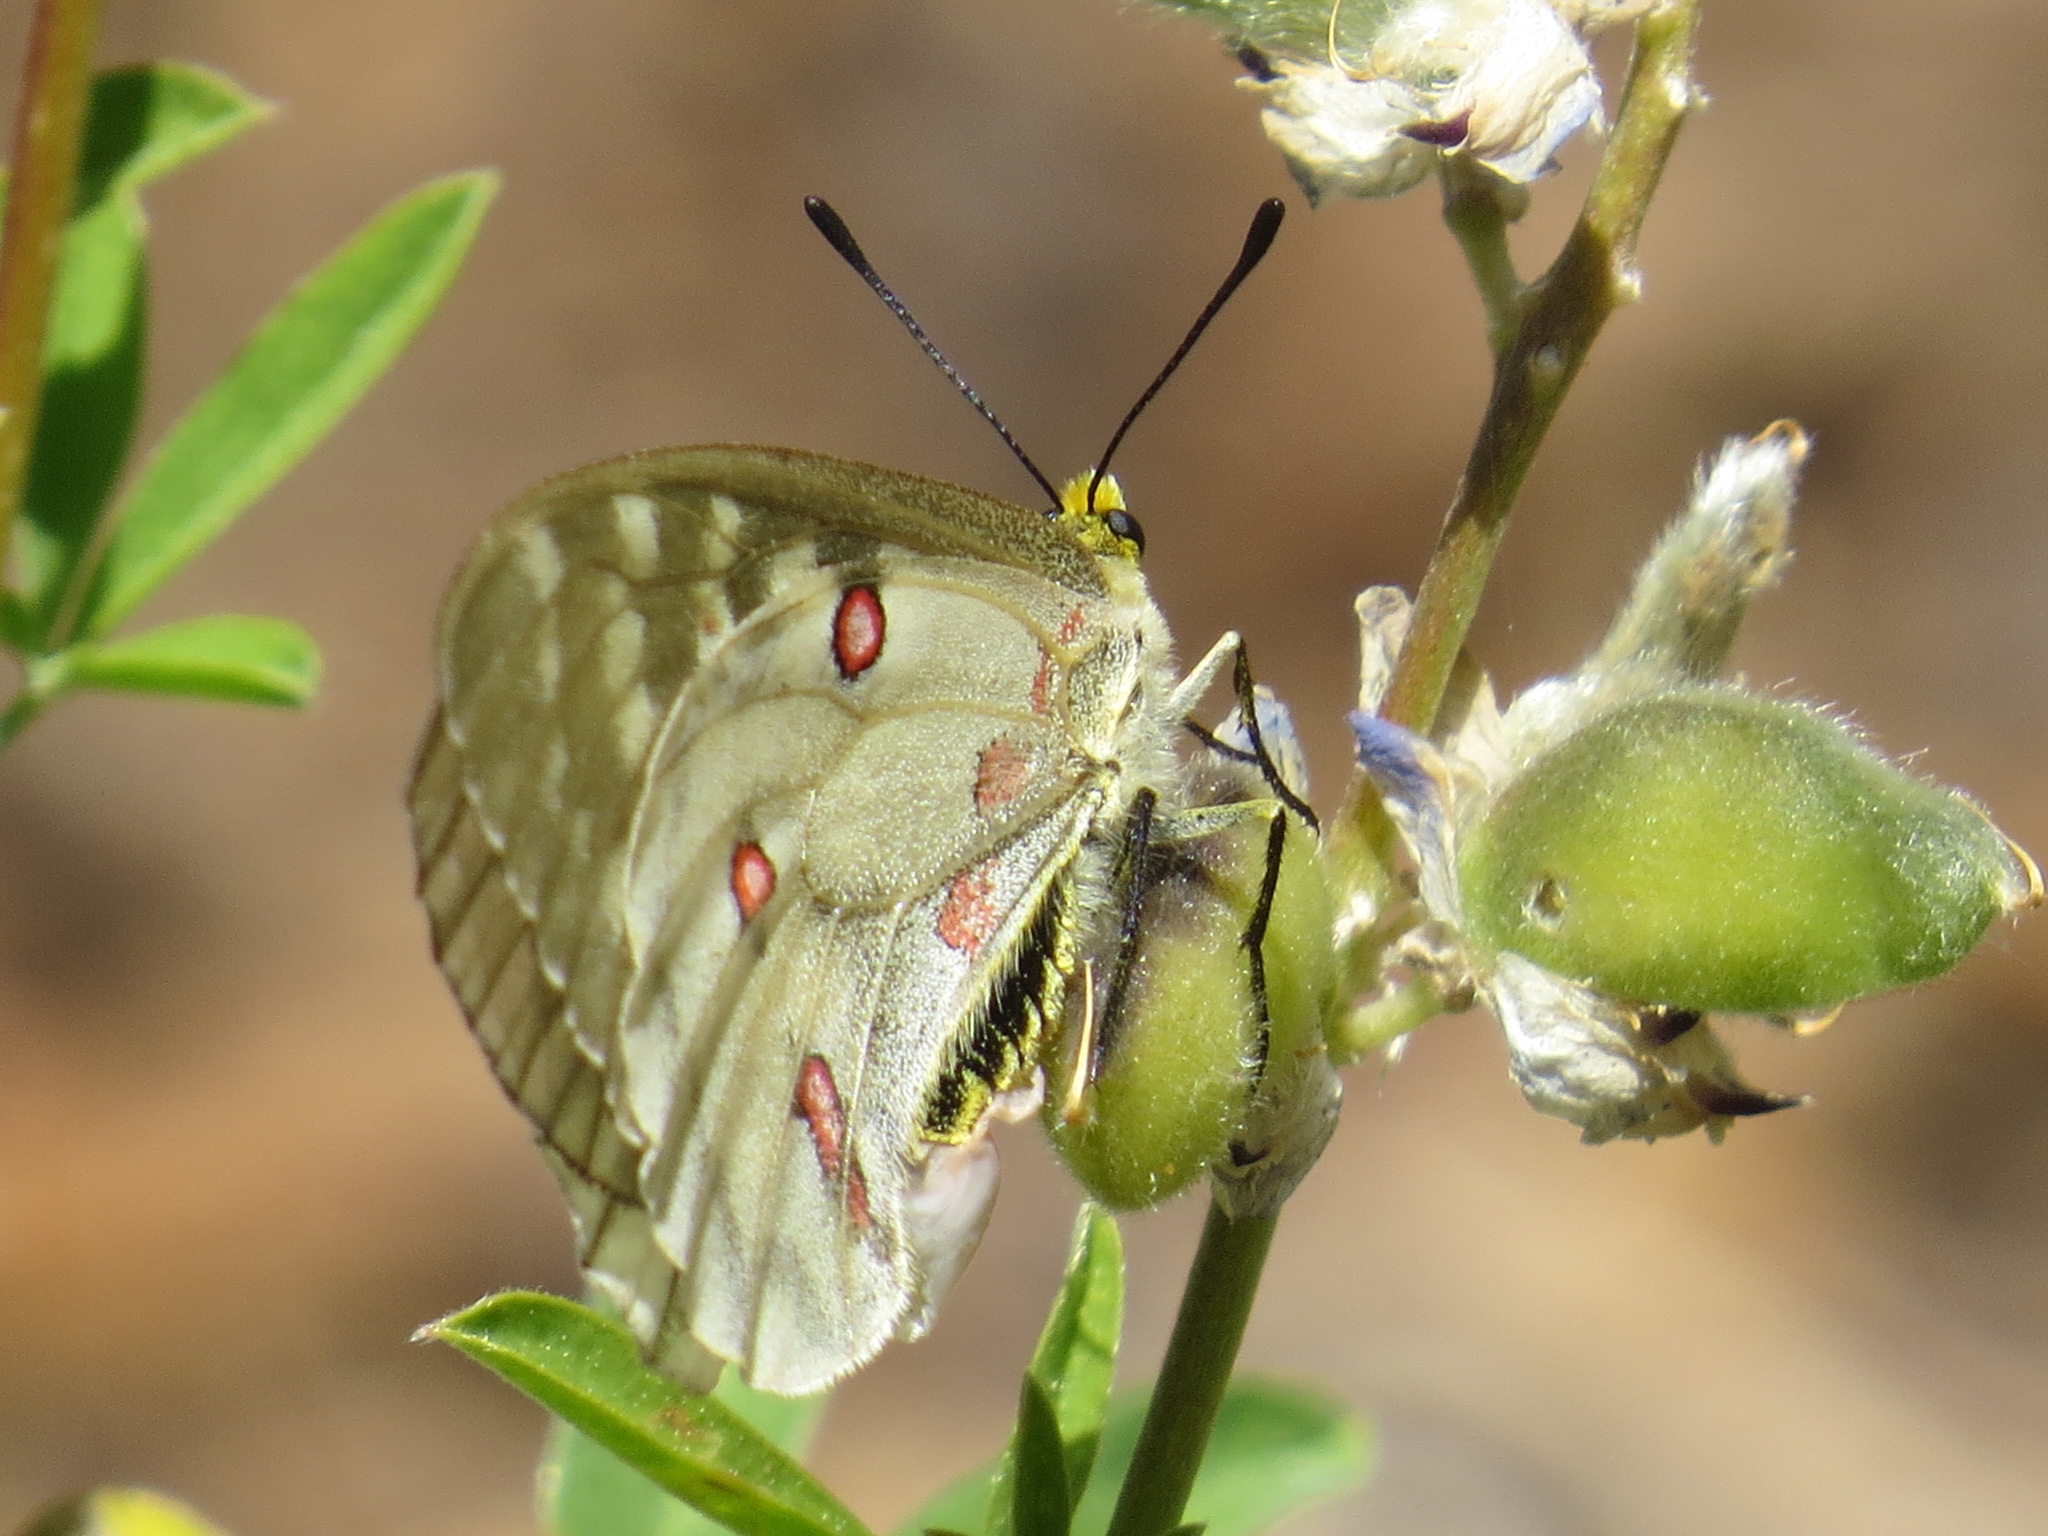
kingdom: Animalia
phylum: Arthropoda
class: Insecta
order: Lepidoptera
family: Papilionidae
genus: Parnassius
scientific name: Parnassius clodius
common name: American apollo
